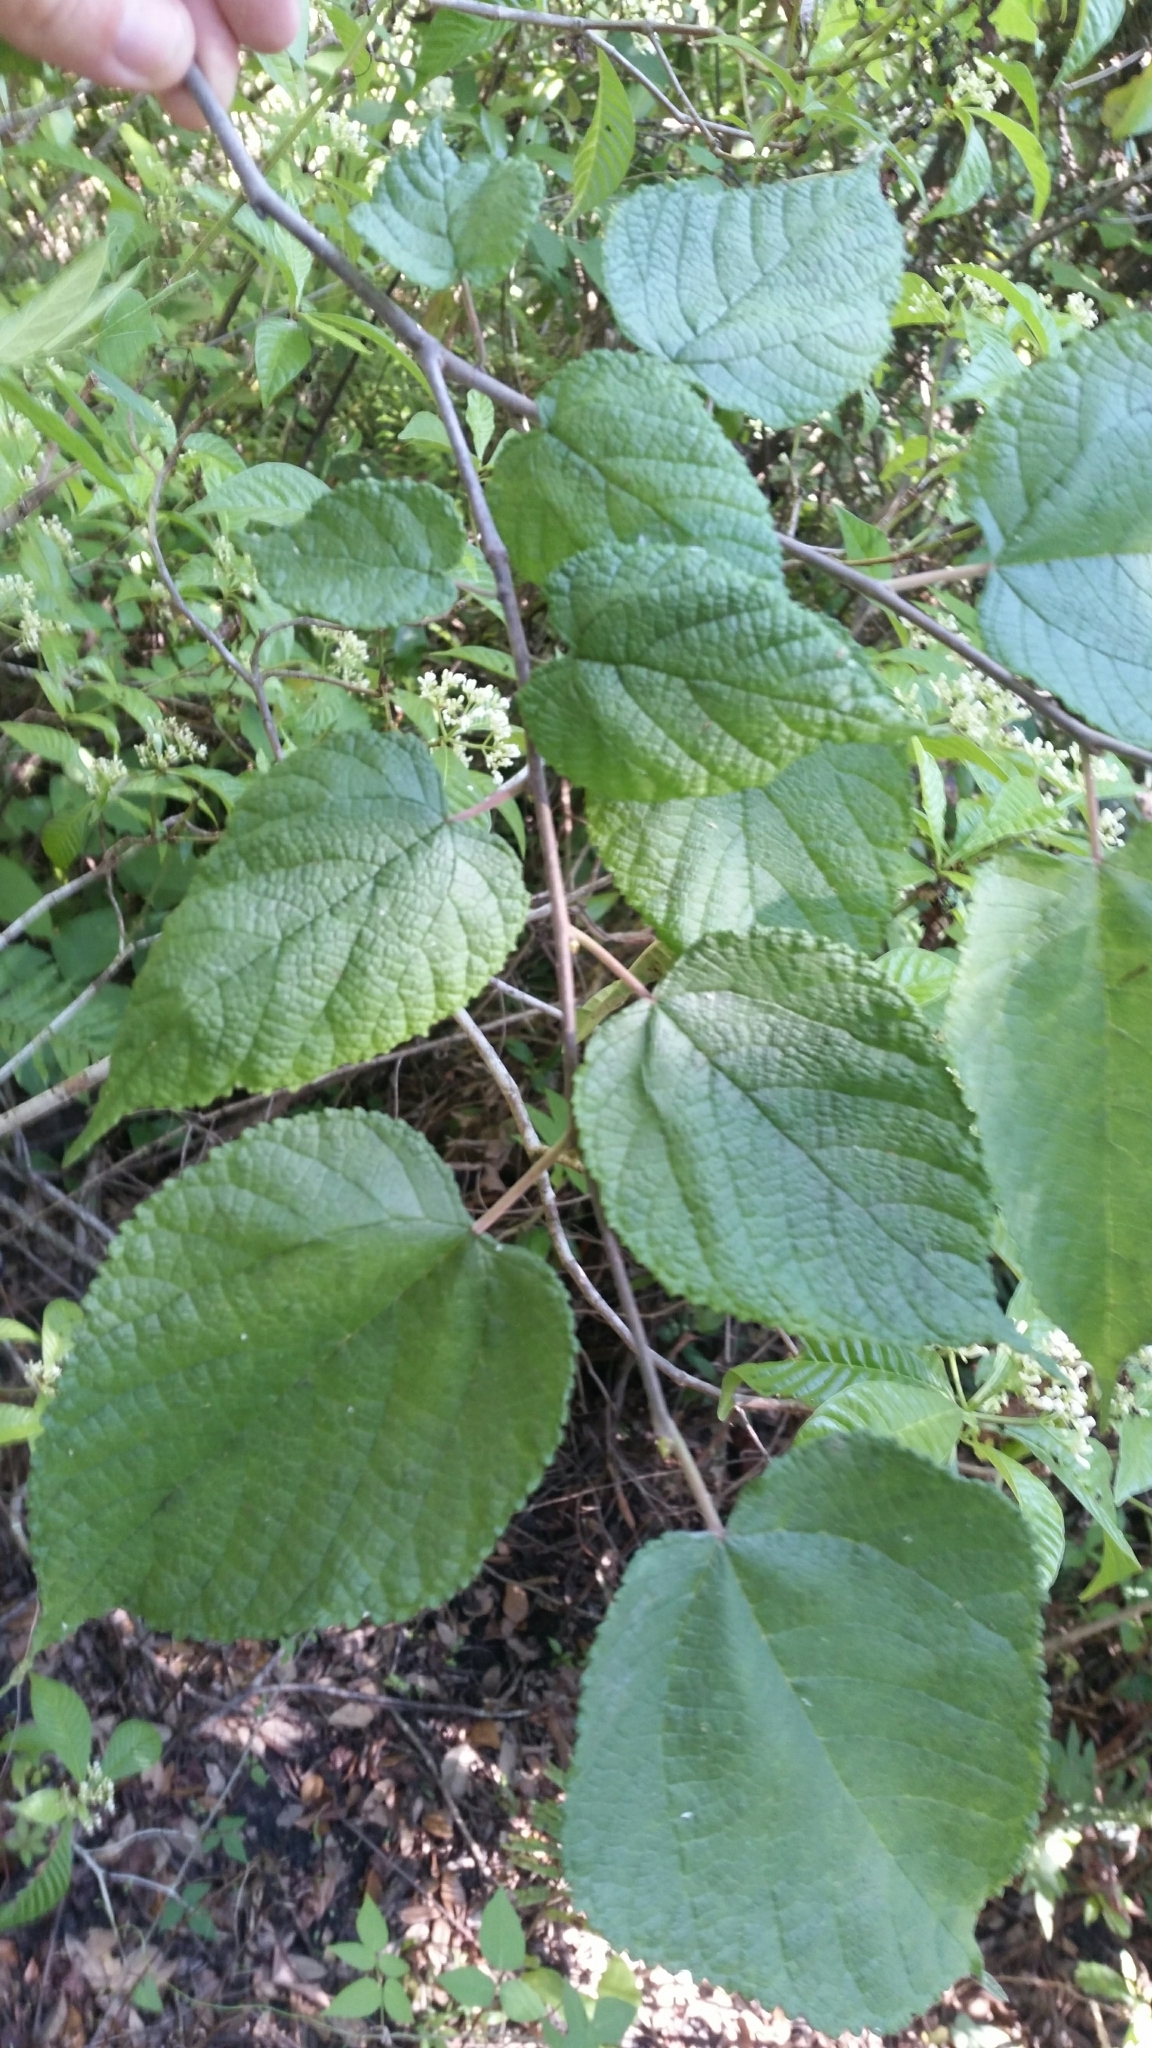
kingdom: Plantae
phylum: Tracheophyta
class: Magnoliopsida
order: Rosales
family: Moraceae
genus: Morus
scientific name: Morus rubra
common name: Red mulberry
